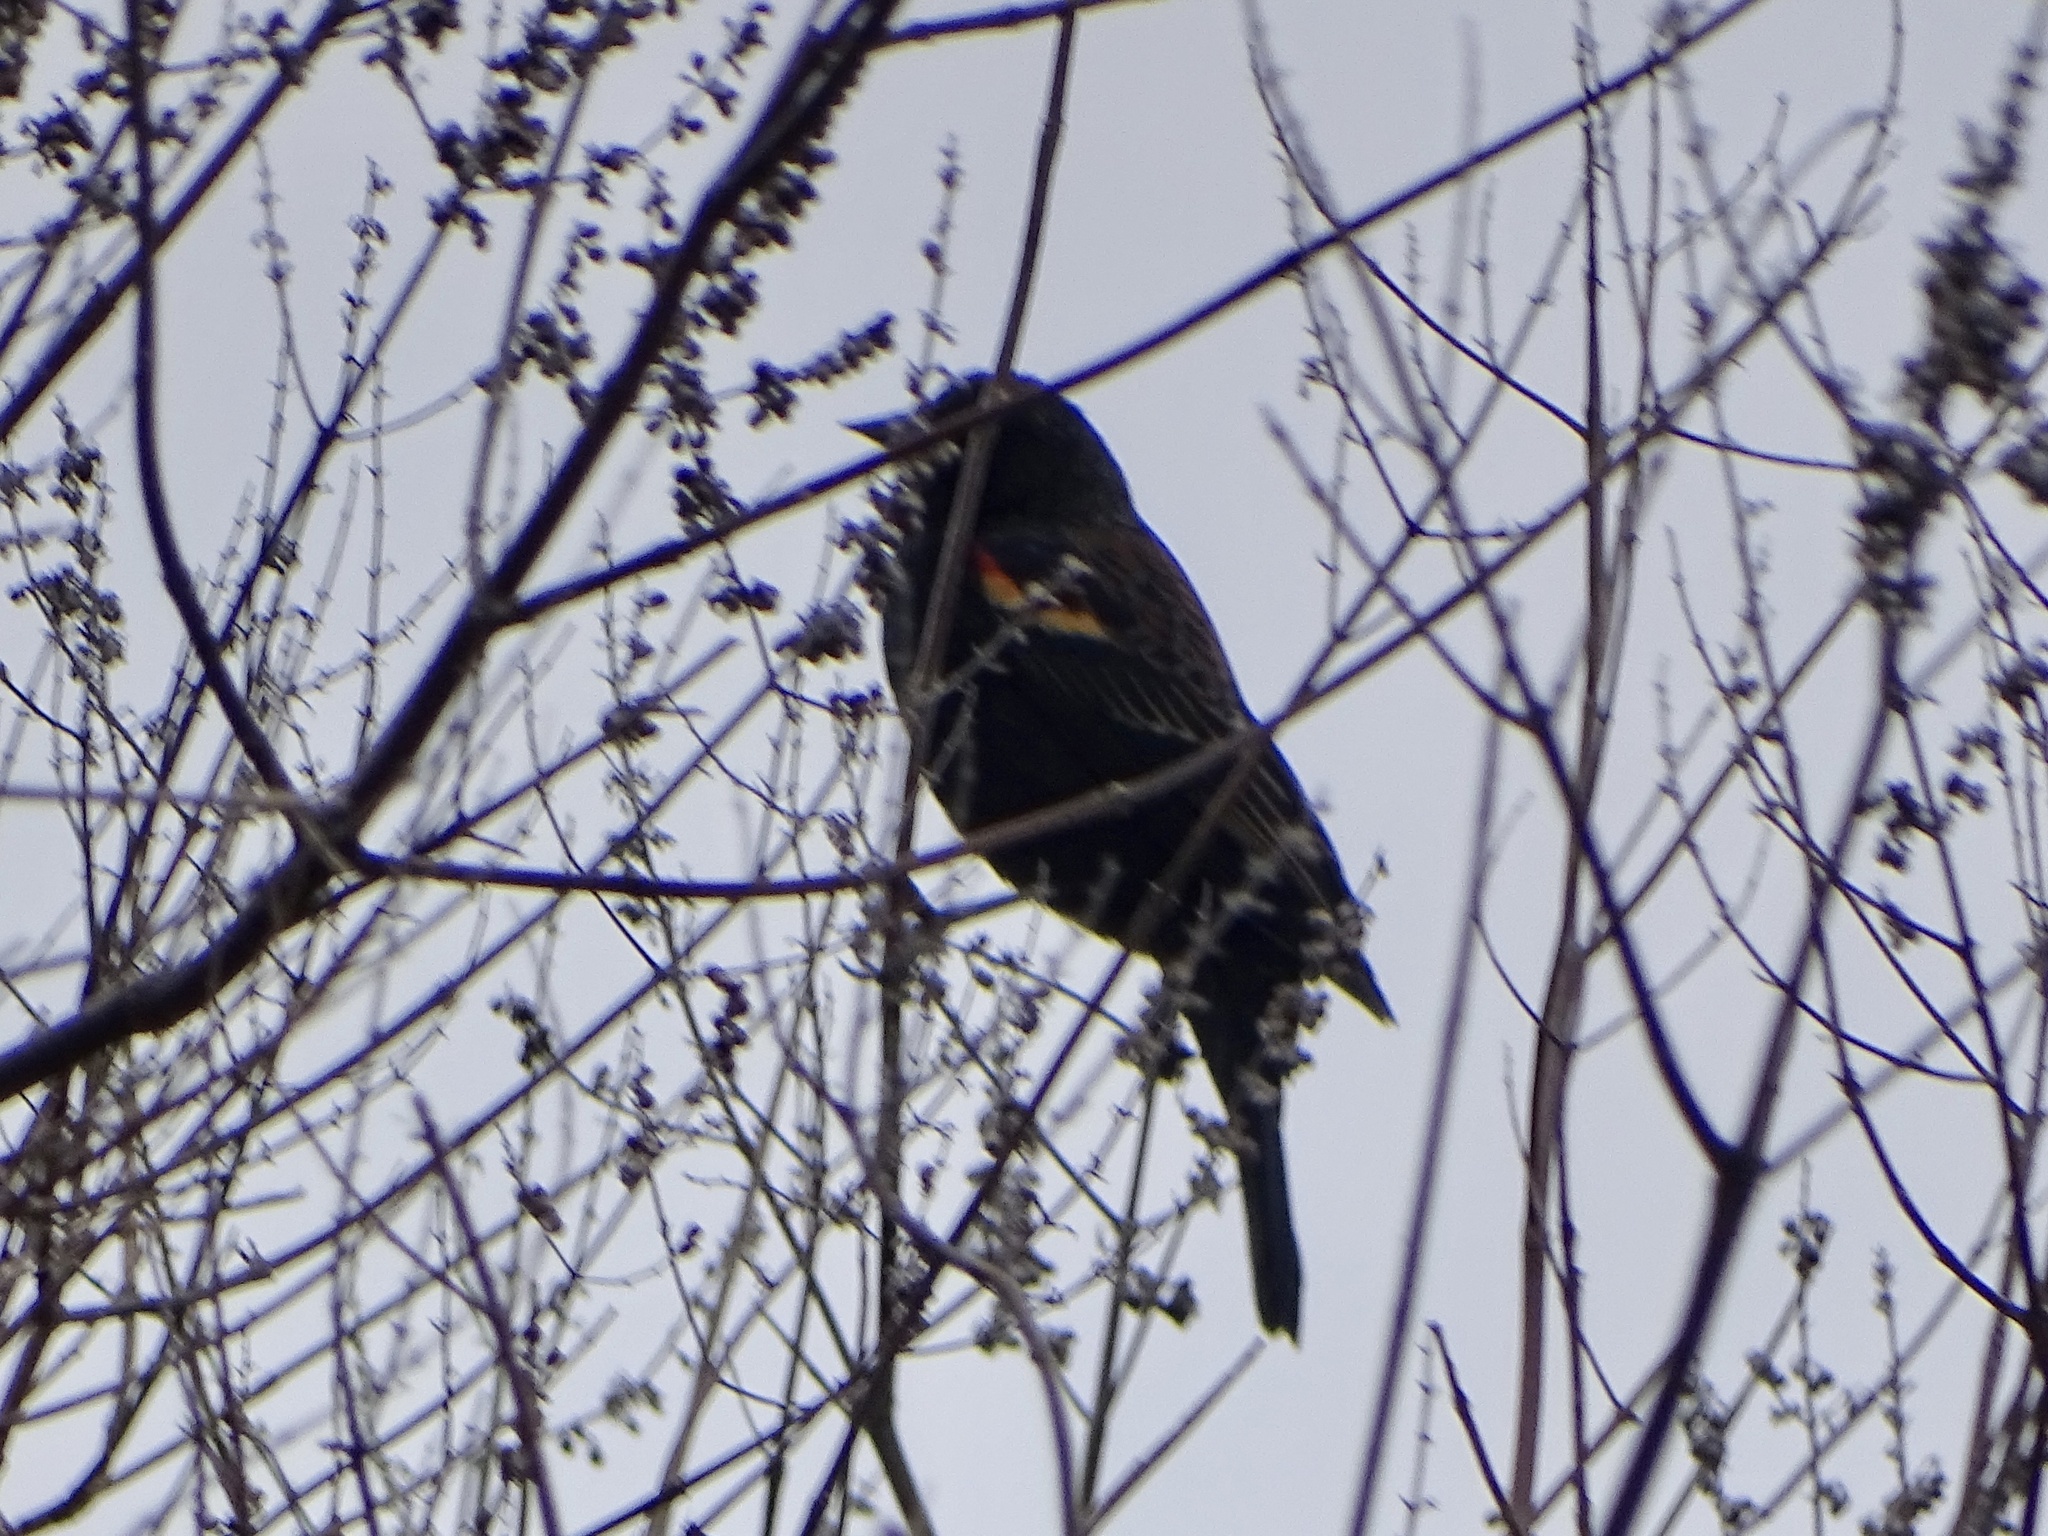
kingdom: Animalia
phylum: Chordata
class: Aves
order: Passeriformes
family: Icteridae
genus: Agelaius
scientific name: Agelaius phoeniceus
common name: Red-winged blackbird
